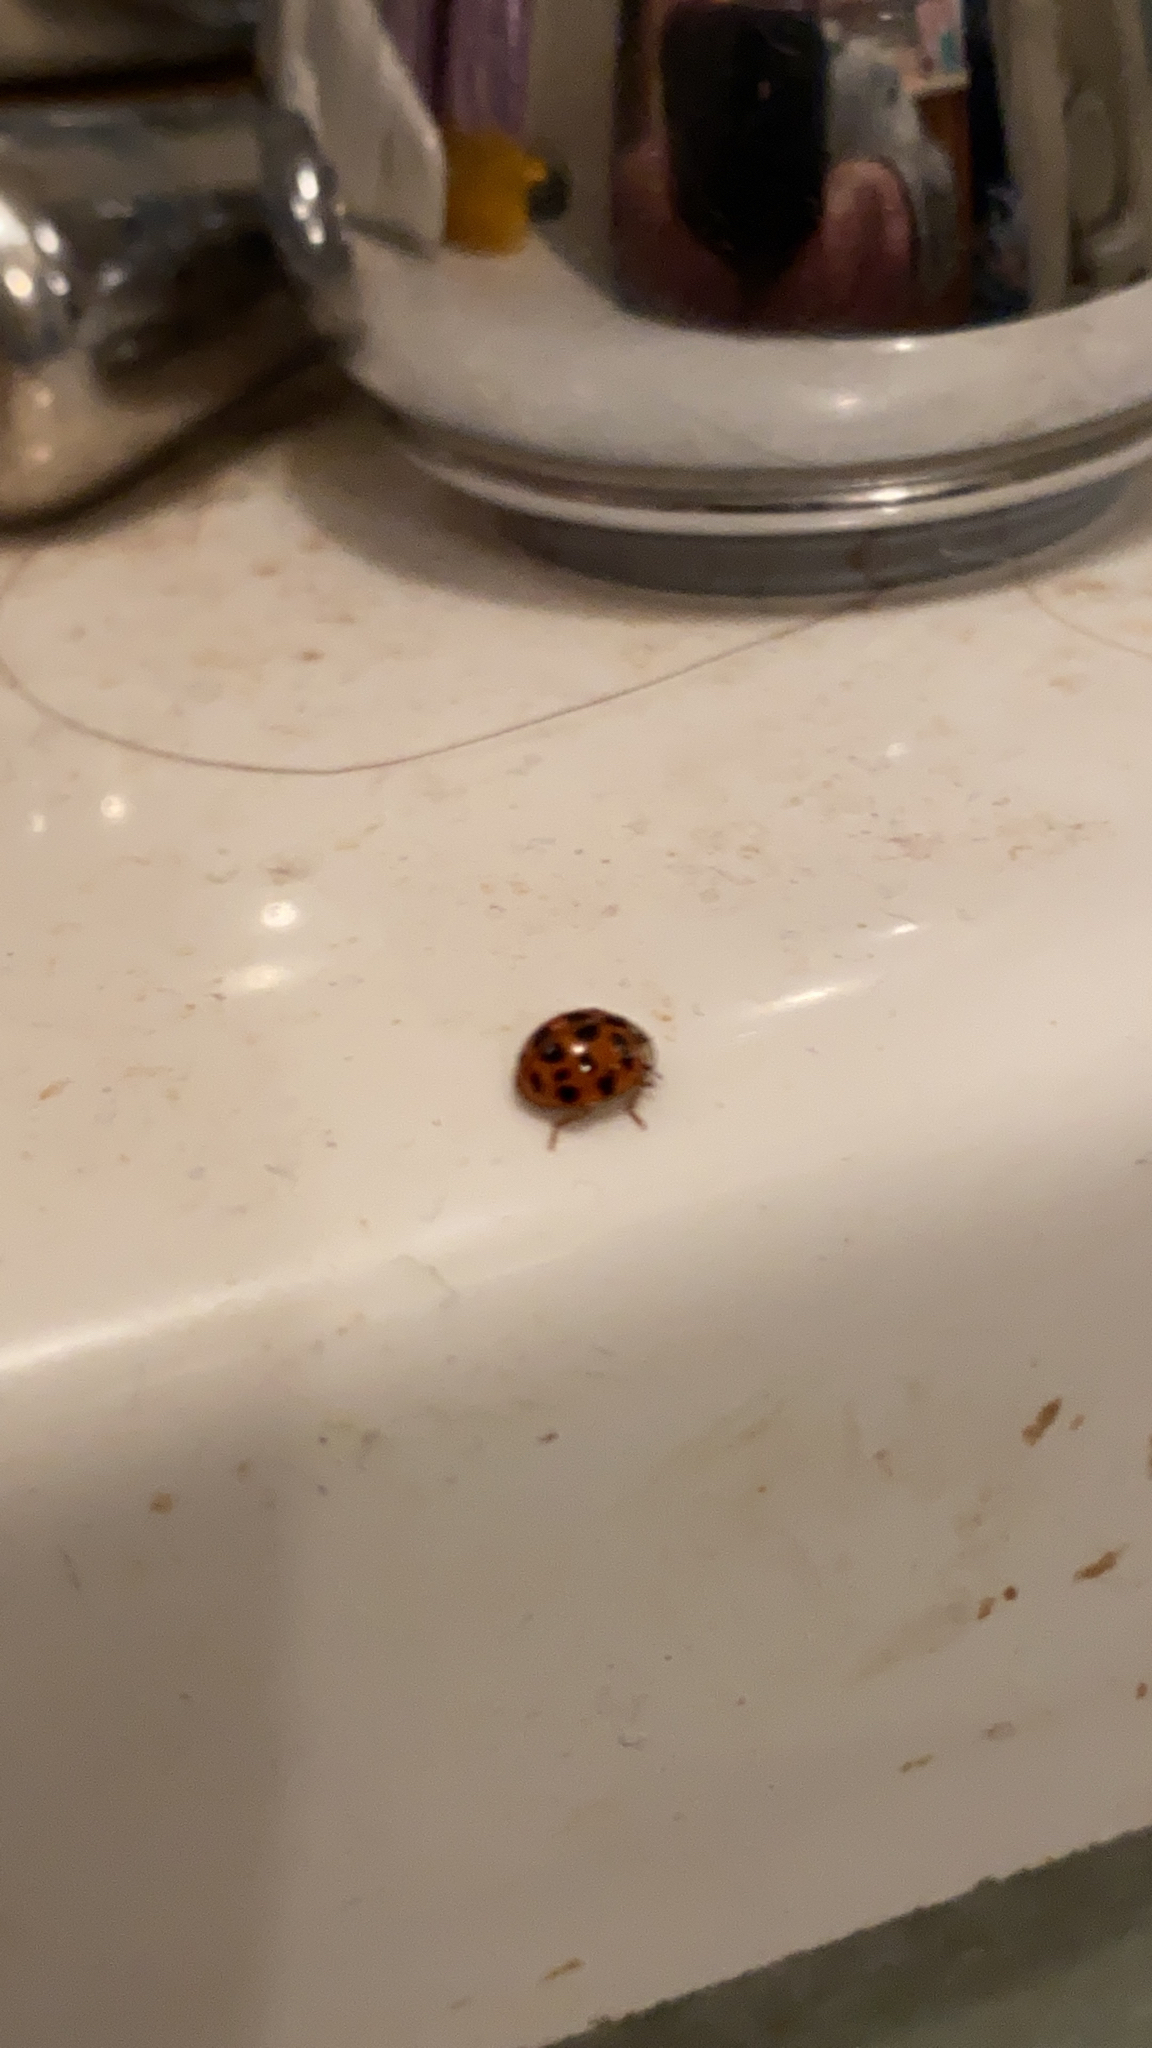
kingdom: Animalia
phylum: Arthropoda
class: Insecta
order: Coleoptera
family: Coccinellidae
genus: Harmonia
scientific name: Harmonia axyridis
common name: Harlequin ladybird
